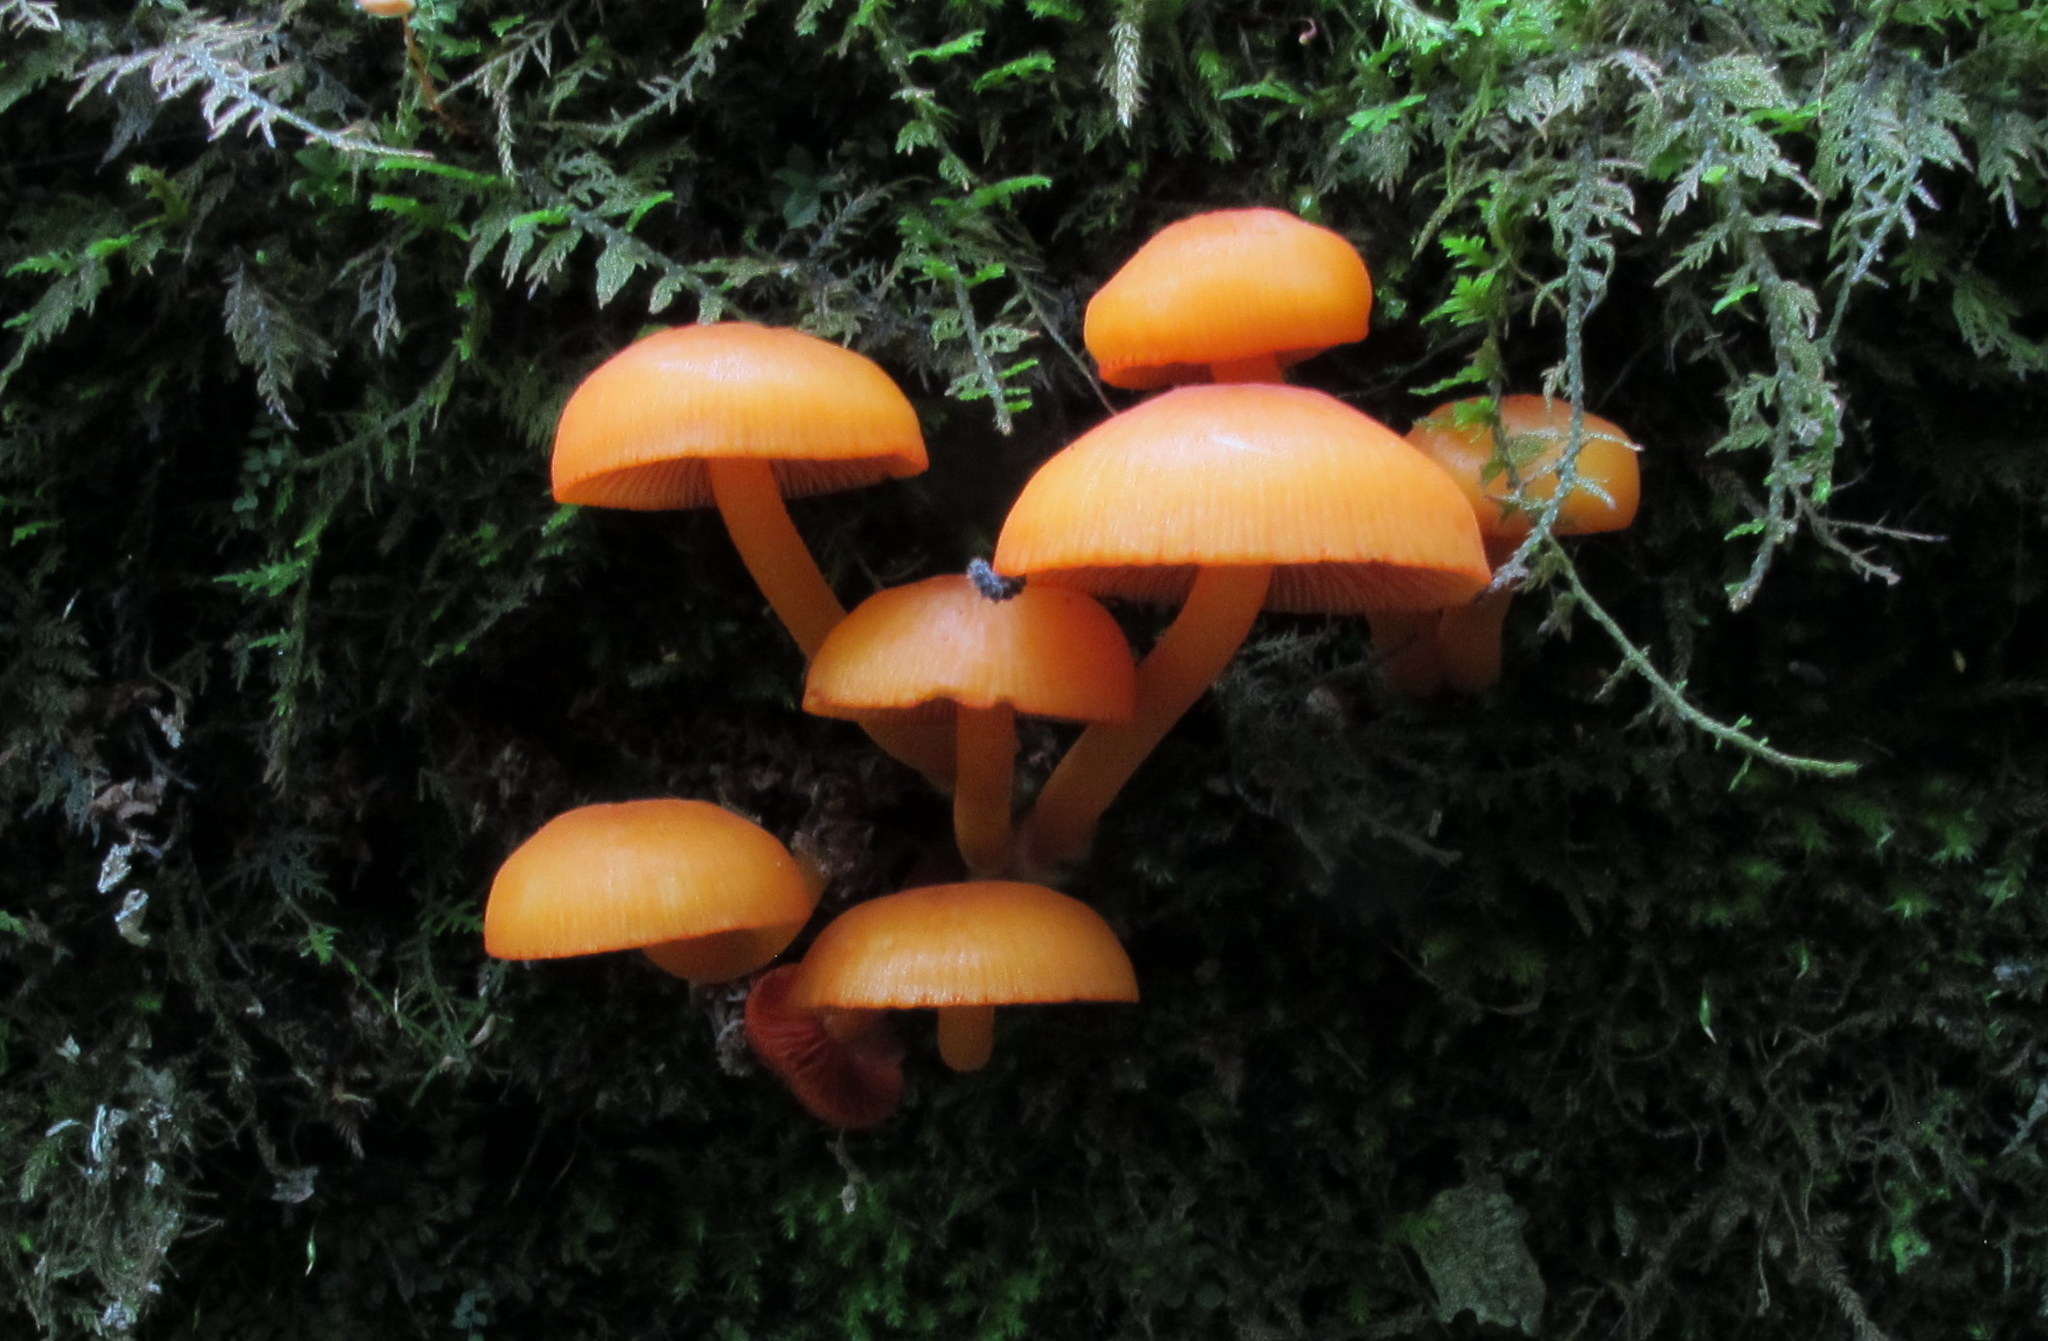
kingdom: Fungi
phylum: Basidiomycota
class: Agaricomycetes
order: Agaricales
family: Mycenaceae
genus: Mycena
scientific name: Mycena leaiana
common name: Orange mycena
